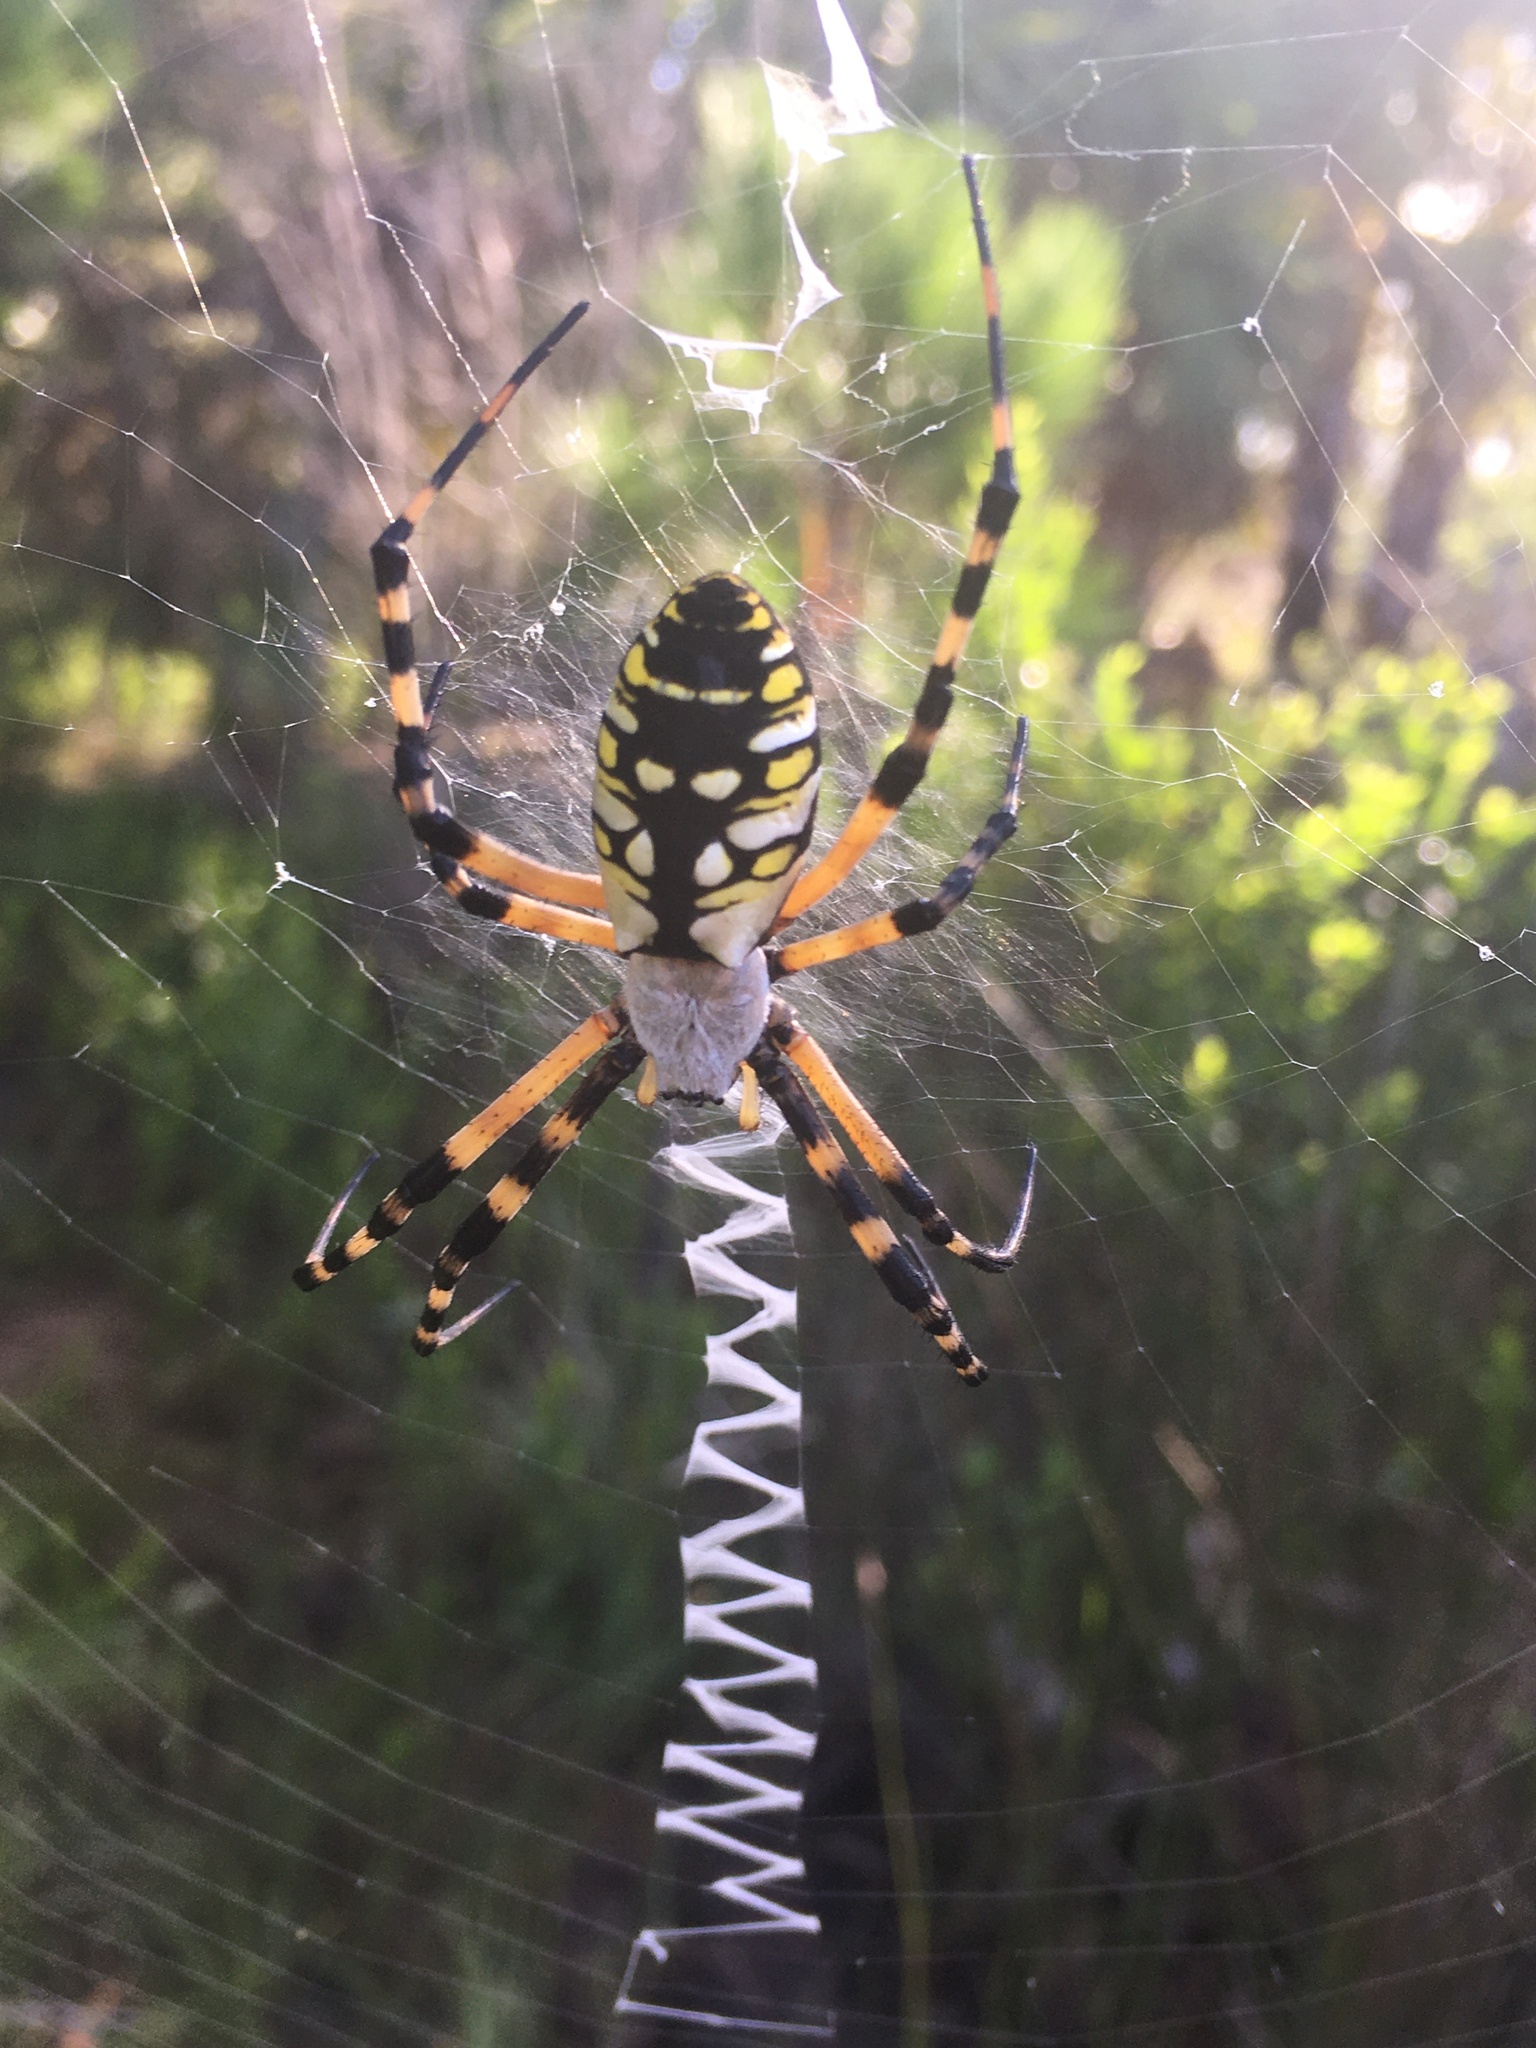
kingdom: Animalia
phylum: Arthropoda
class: Arachnida
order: Araneae
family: Araneidae
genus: Argiope
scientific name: Argiope aurantia
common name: Orb weavers
